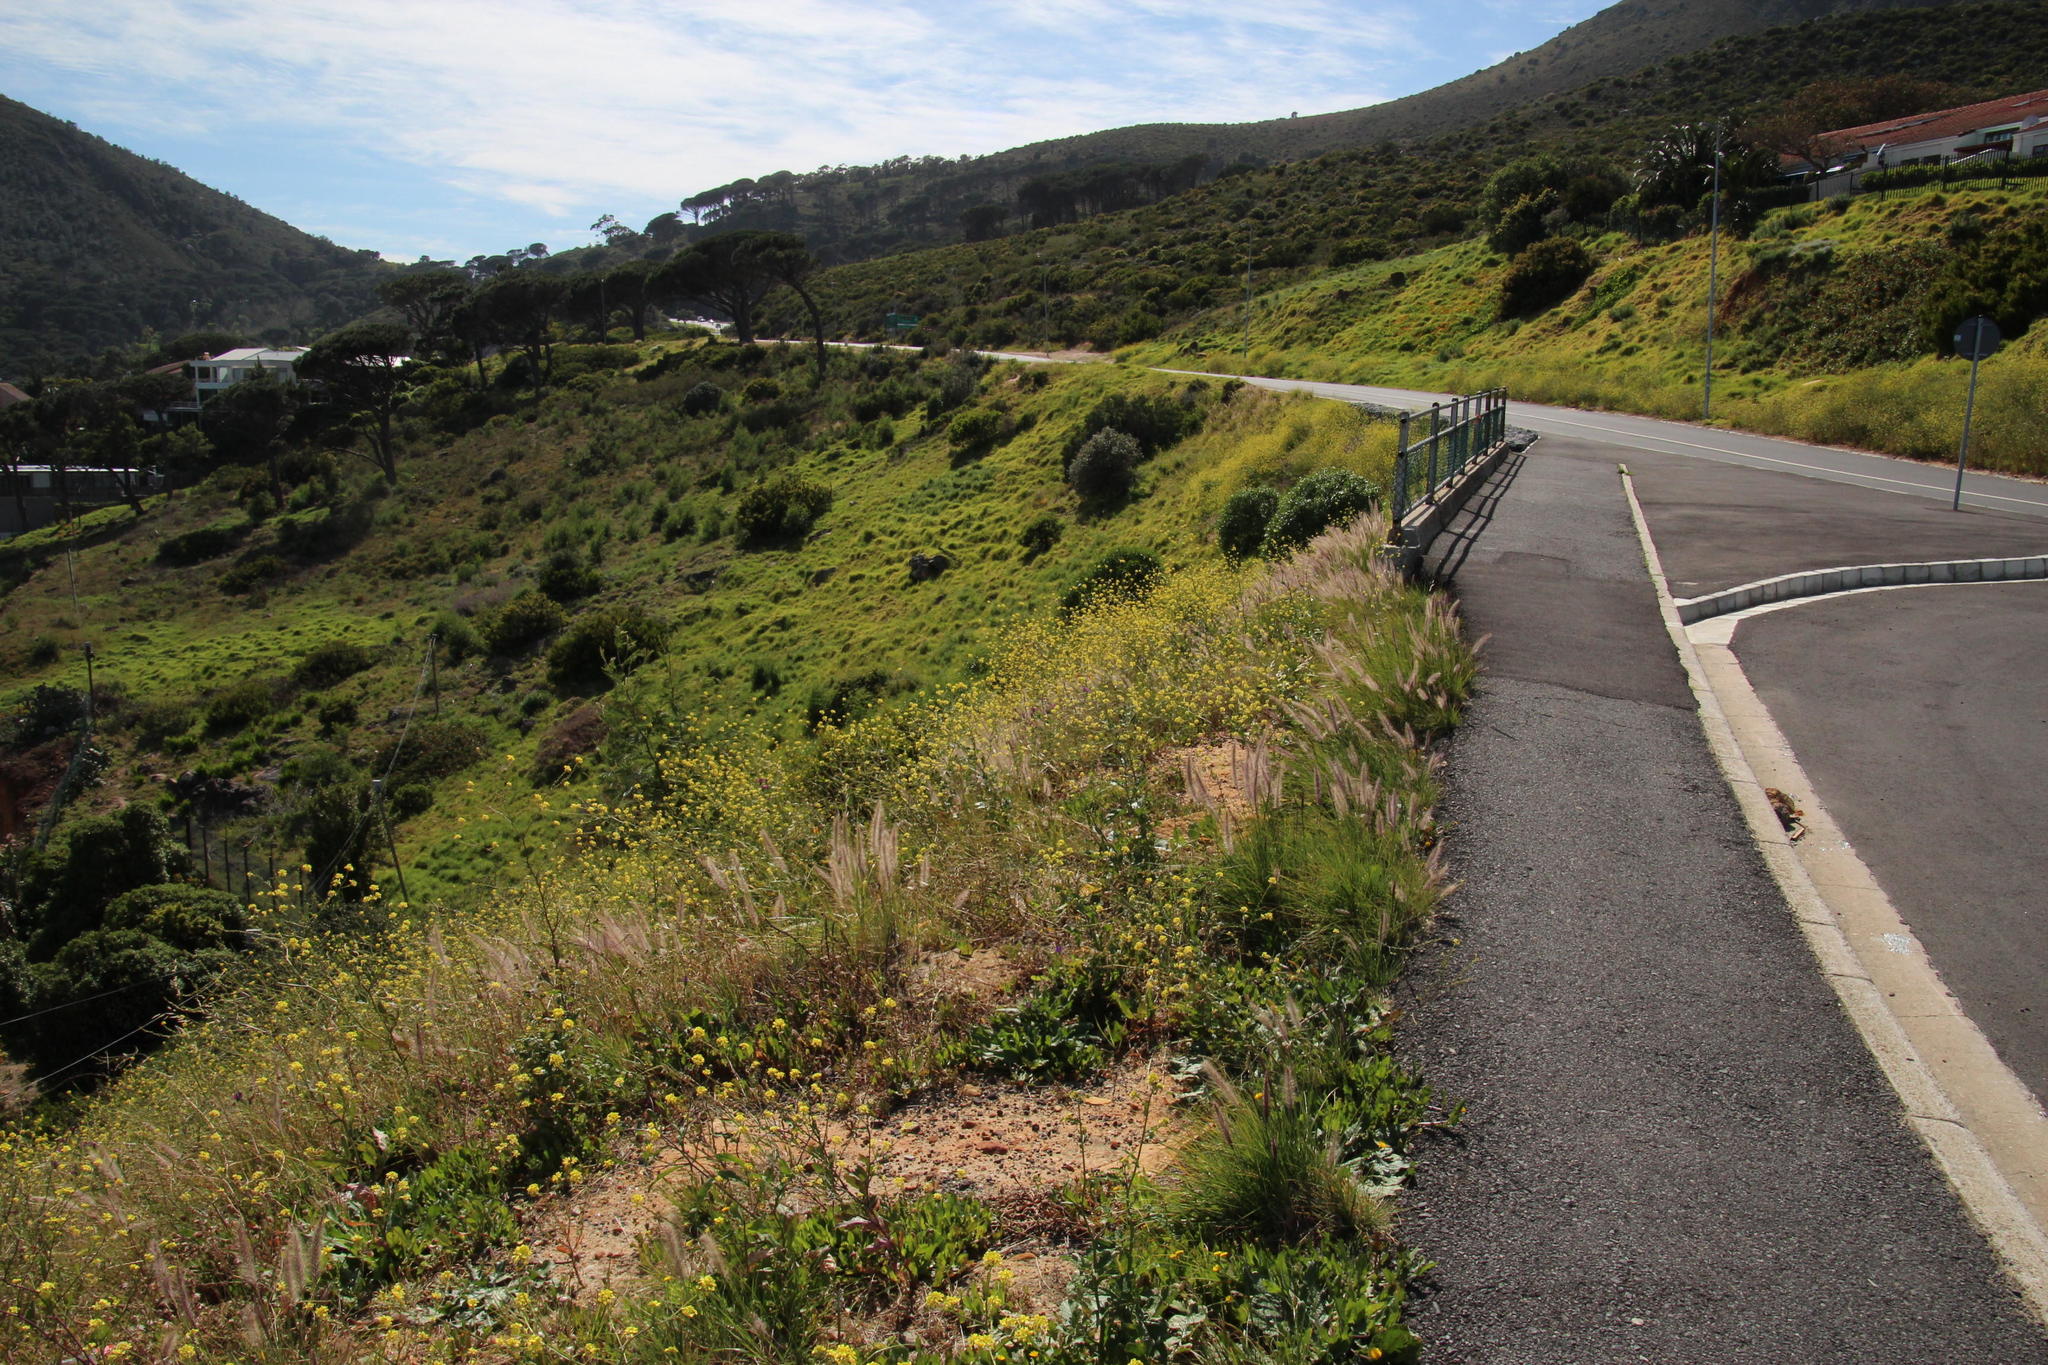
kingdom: Plantae
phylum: Tracheophyta
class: Liliopsida
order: Poales
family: Poaceae
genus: Cenchrus
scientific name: Cenchrus setaceus
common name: Crimson fountaingrass
